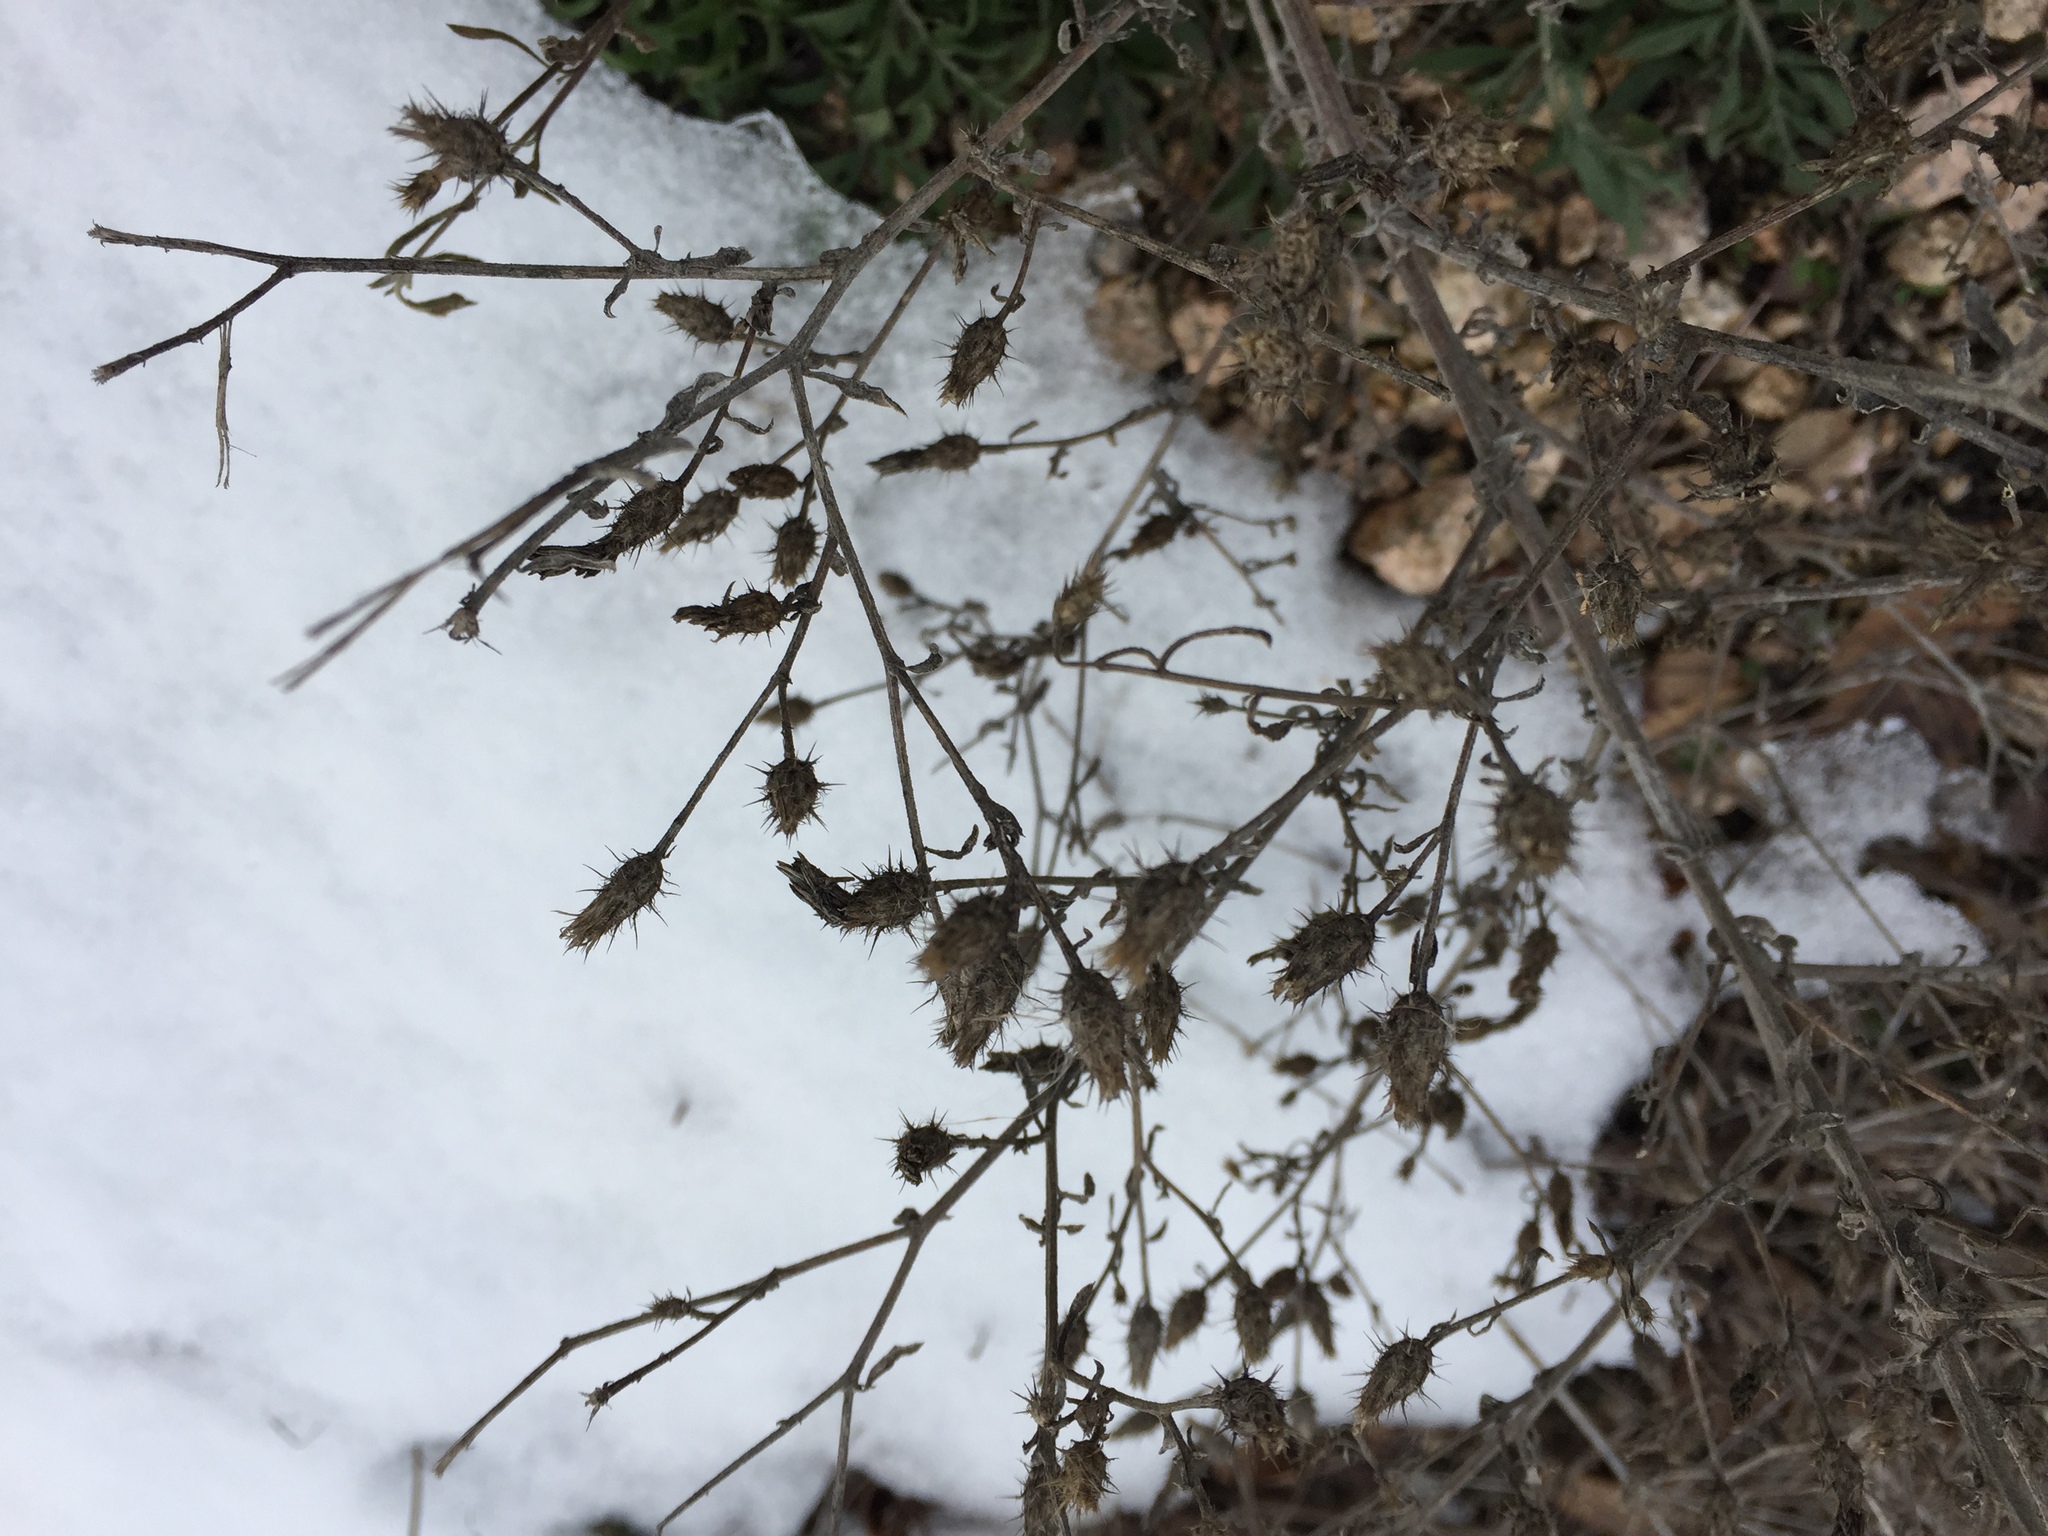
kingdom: Plantae
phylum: Tracheophyta
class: Magnoliopsida
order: Asterales
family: Asteraceae
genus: Centaurea
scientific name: Centaurea diffusa
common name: Diffuse knapweed
